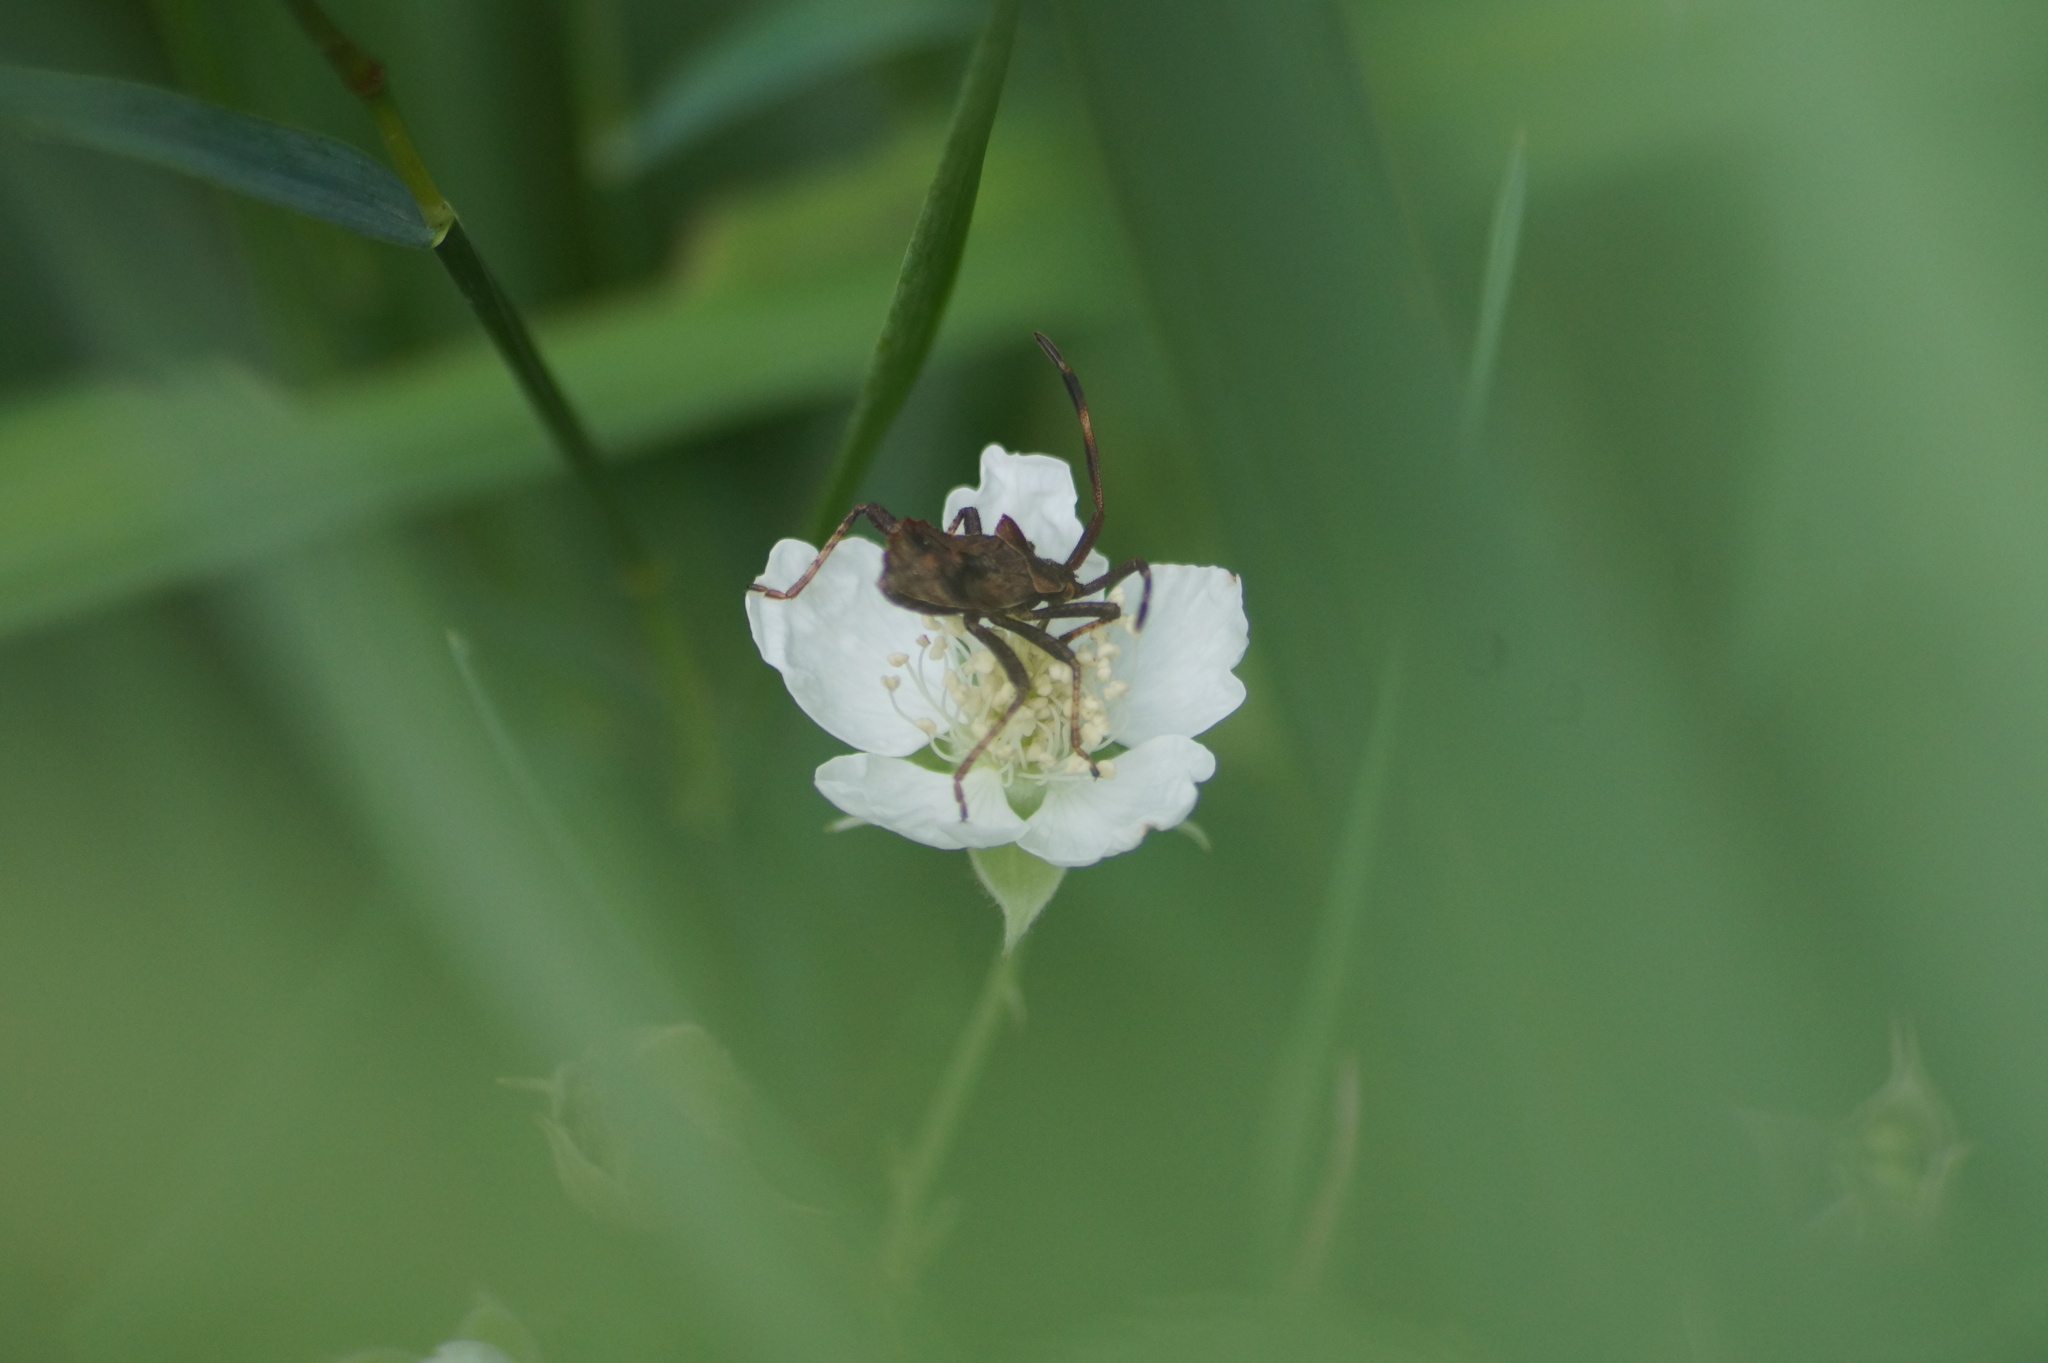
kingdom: Animalia
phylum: Arthropoda
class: Insecta
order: Hemiptera
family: Coreidae
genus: Coreus
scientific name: Coreus marginatus
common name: Dock bug
